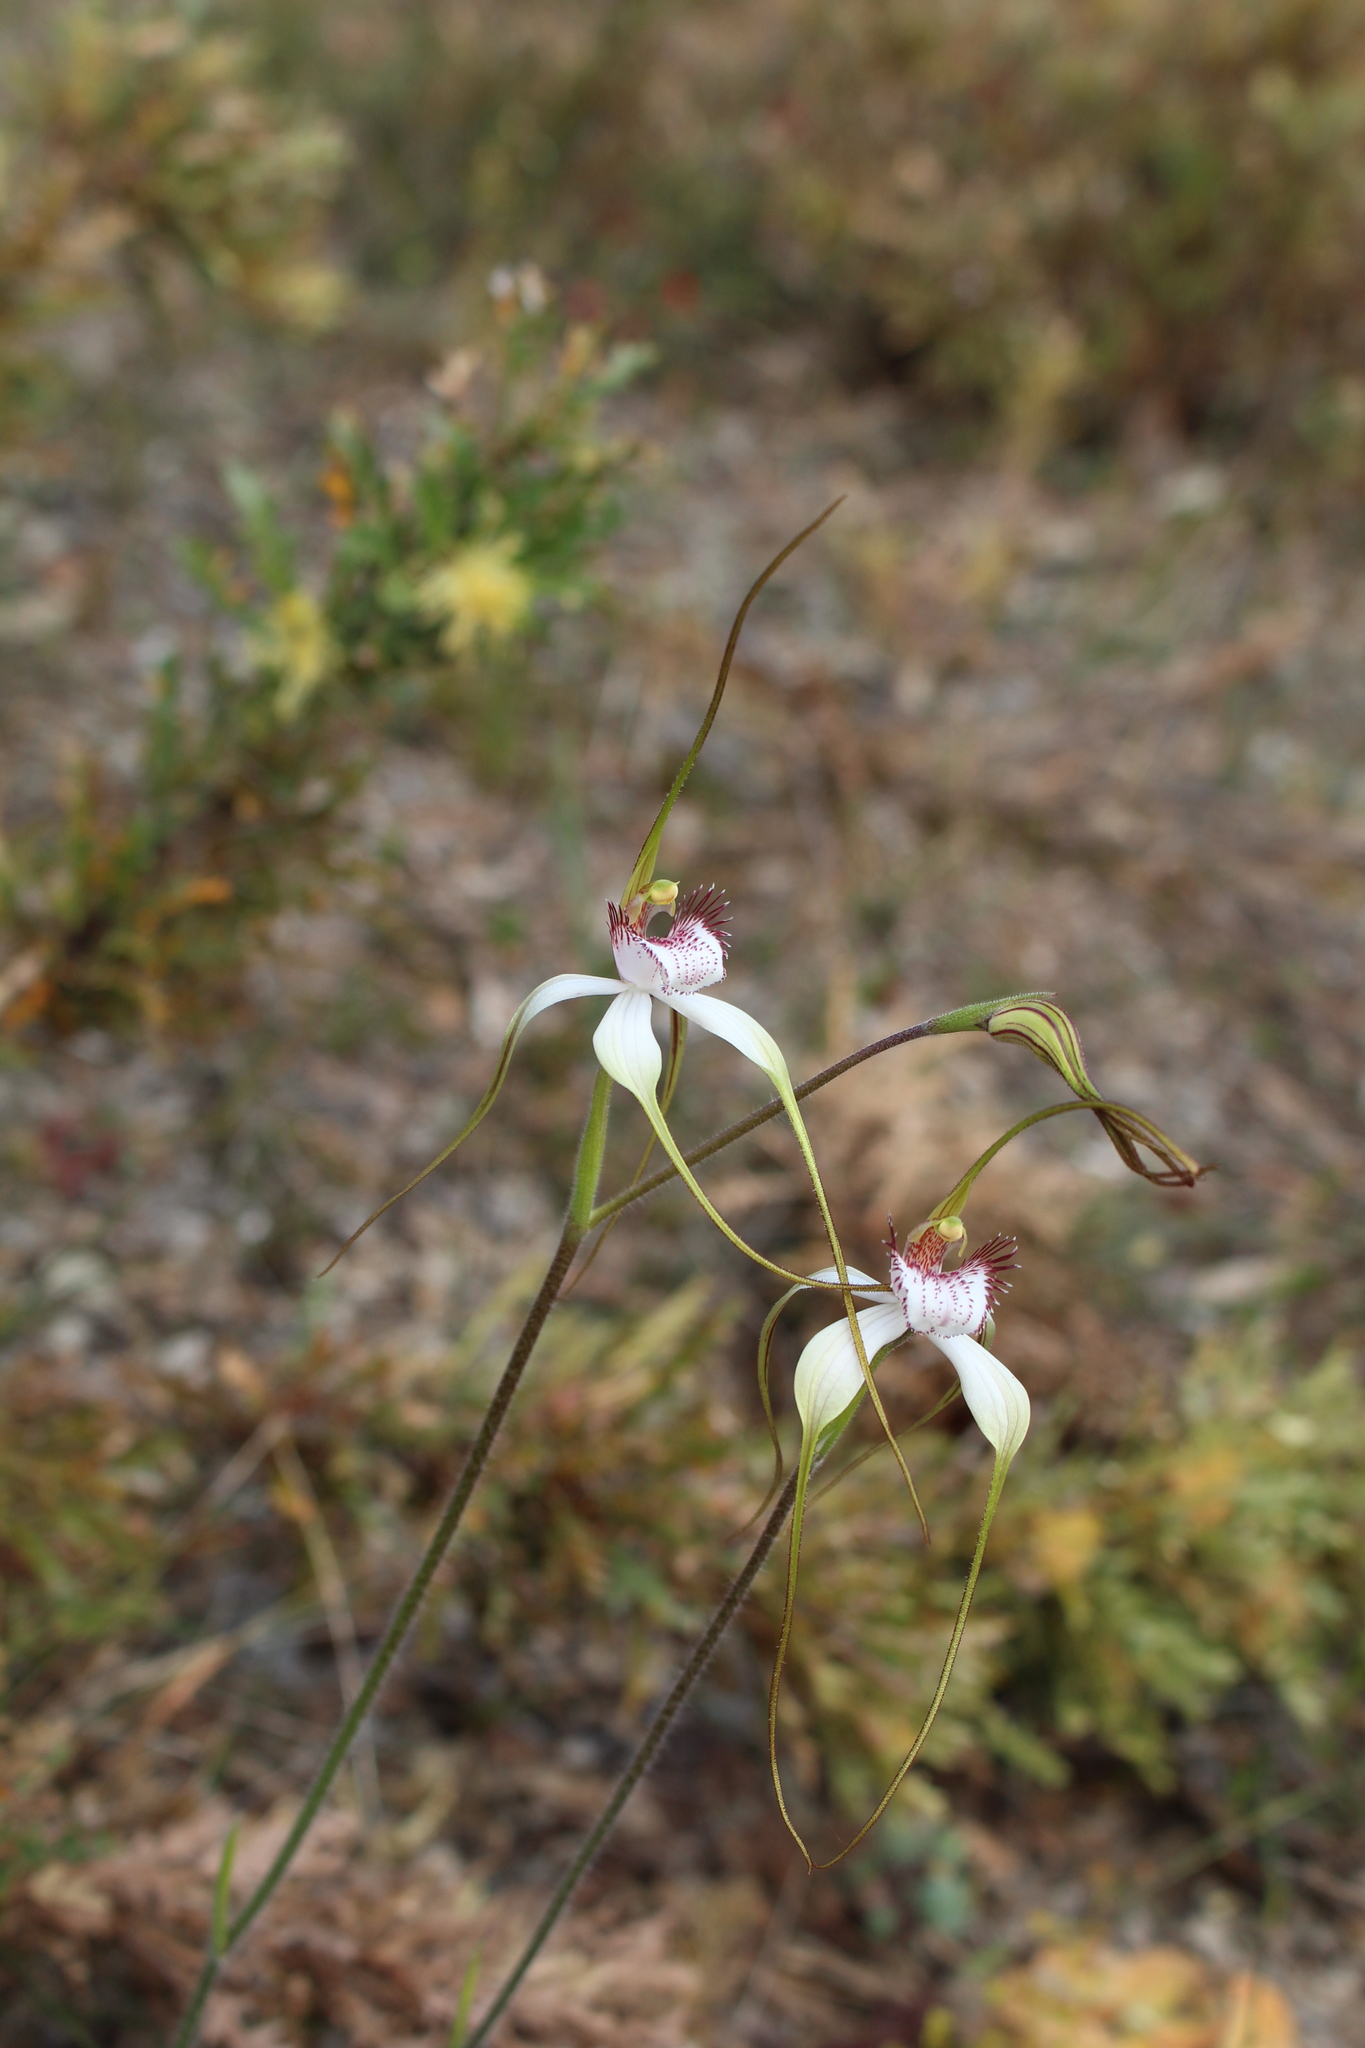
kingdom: Plantae
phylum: Tracheophyta
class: Liliopsida
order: Asparagales
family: Orchidaceae
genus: Caladenia
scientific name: Caladenia longicauda
